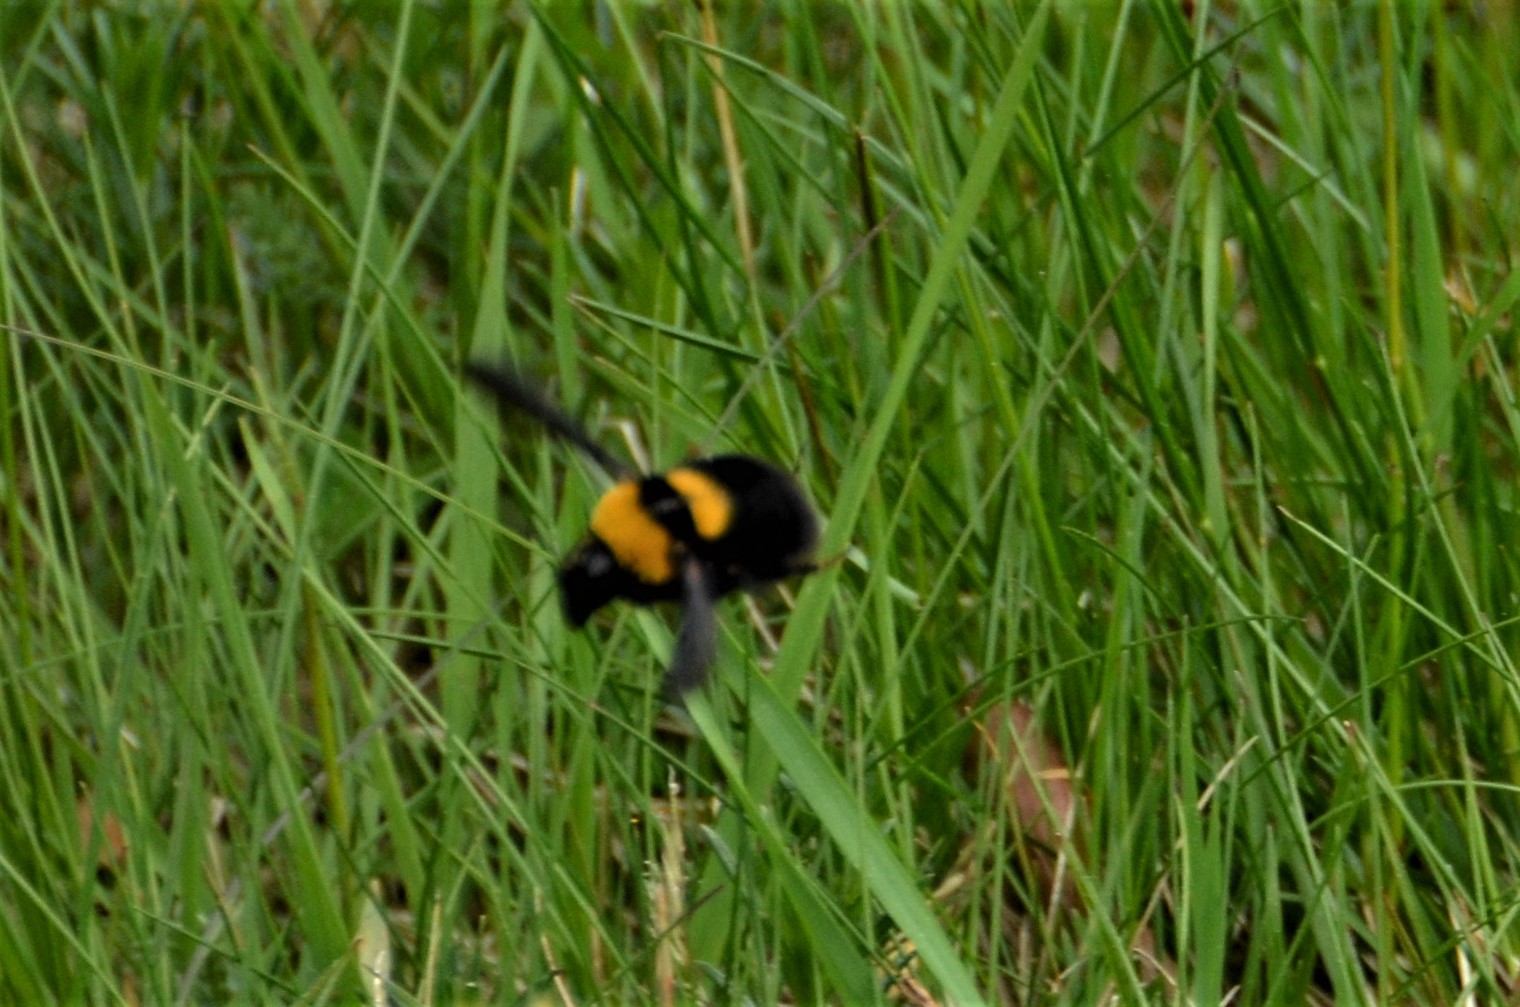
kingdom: Animalia
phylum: Arthropoda
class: Insecta
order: Hymenoptera
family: Apidae
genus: Bombus
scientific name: Bombus argillaceus
